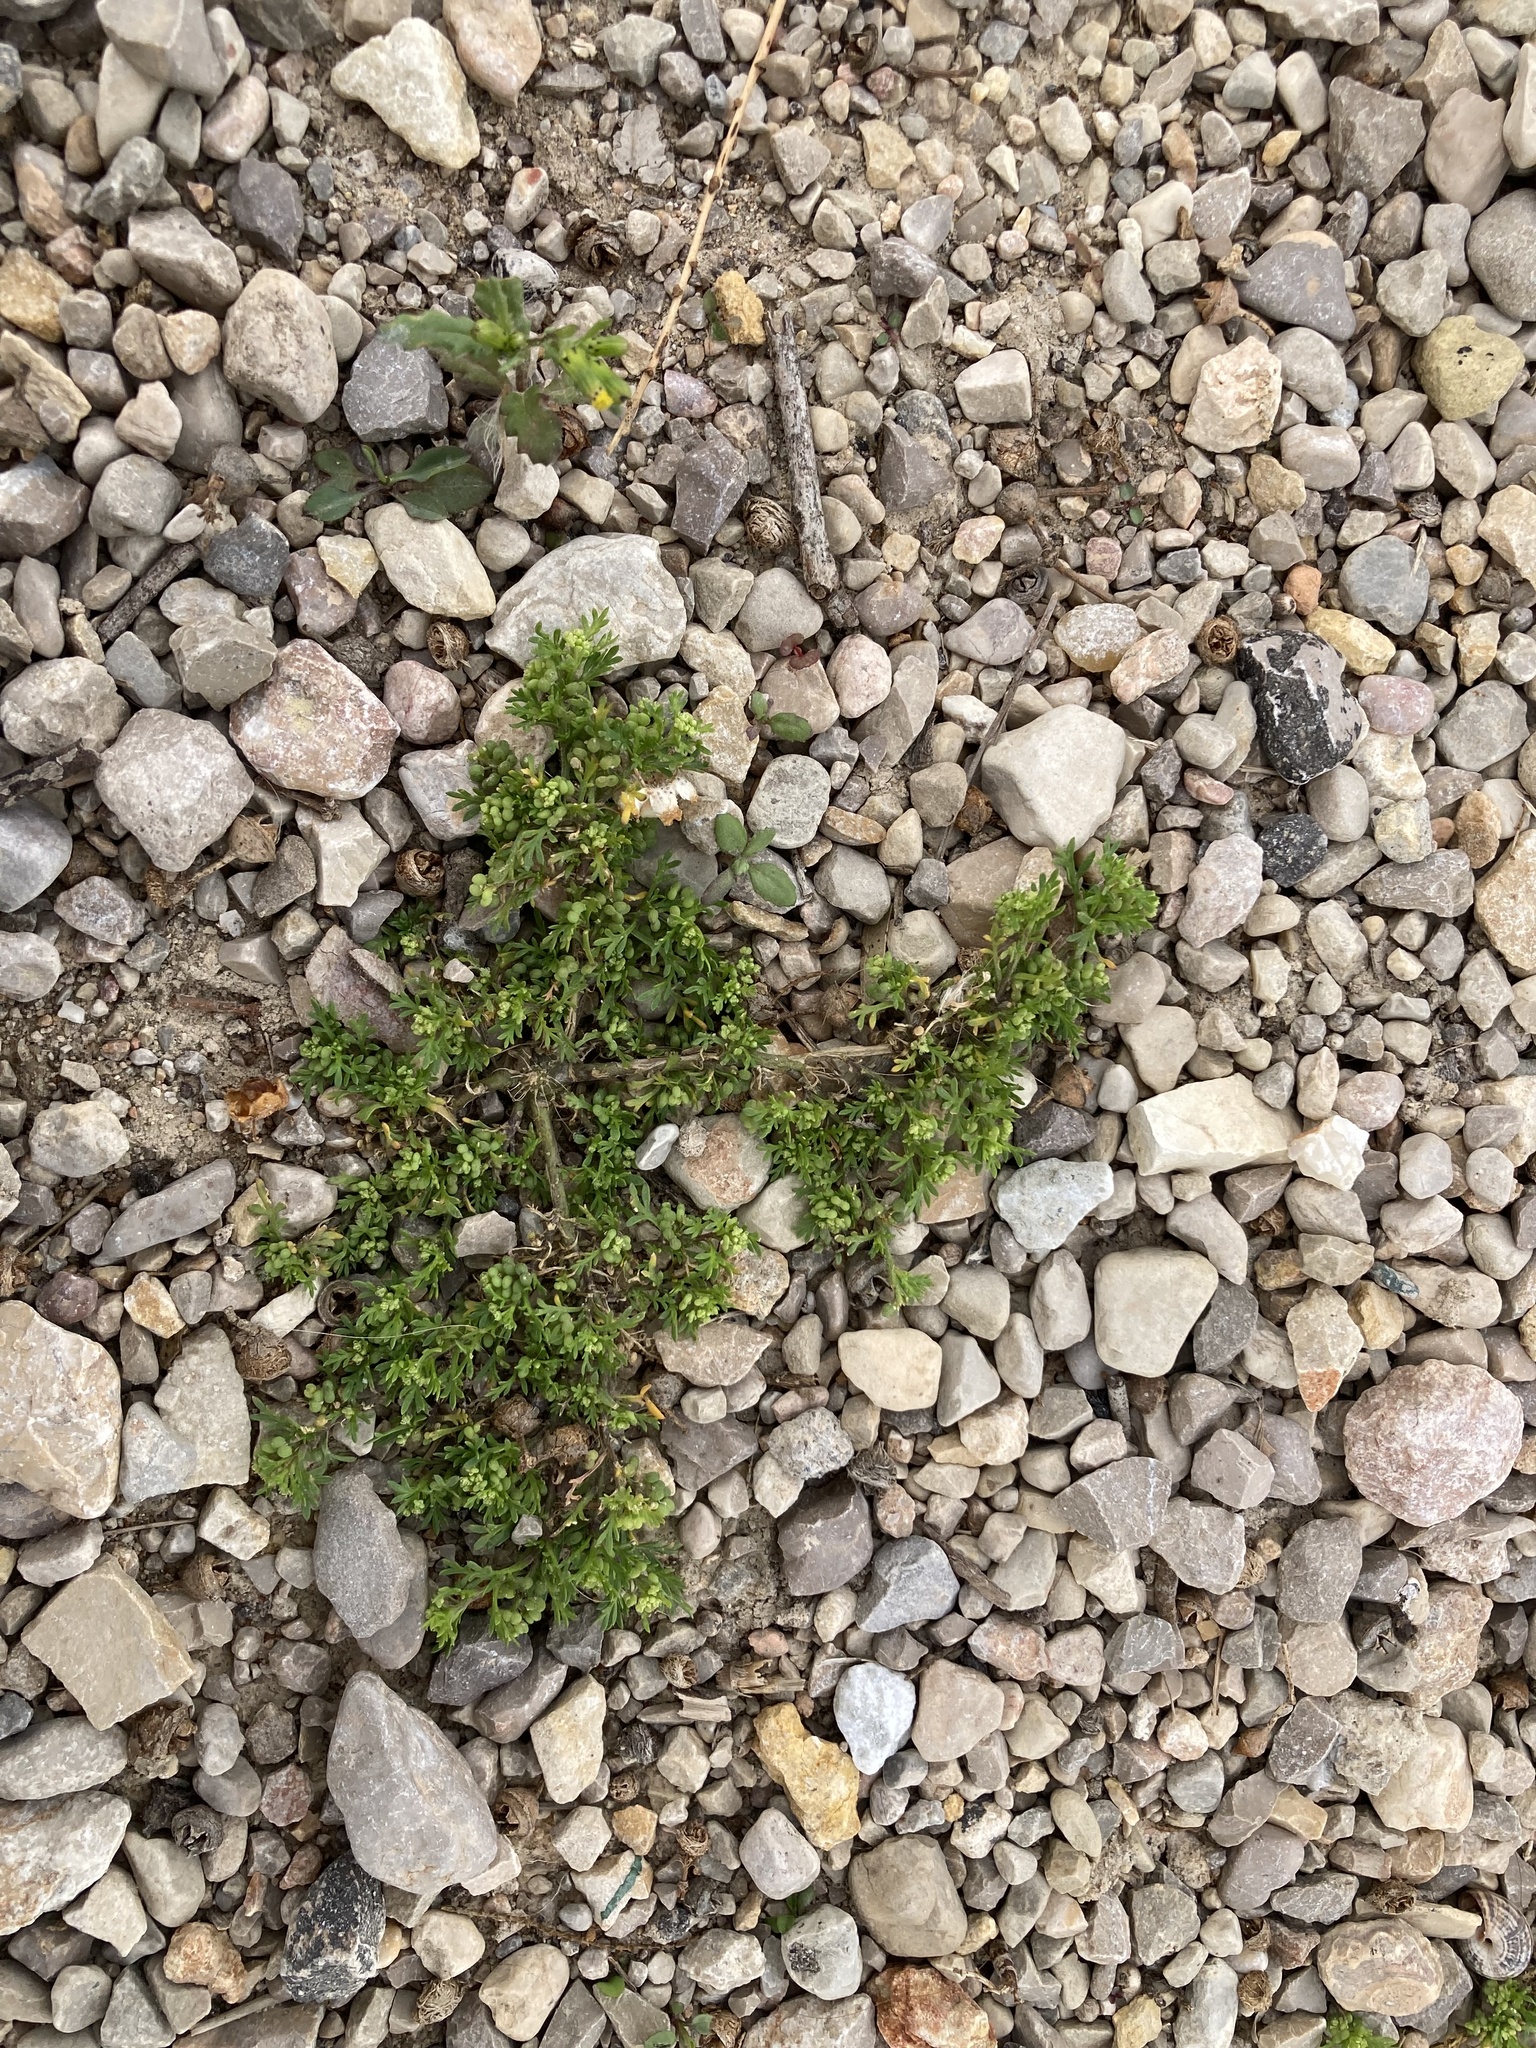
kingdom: Plantae
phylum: Tracheophyta
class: Magnoliopsida
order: Brassicales
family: Brassicaceae
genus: Lepidium
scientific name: Lepidium didymum
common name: Lesser swinecress
